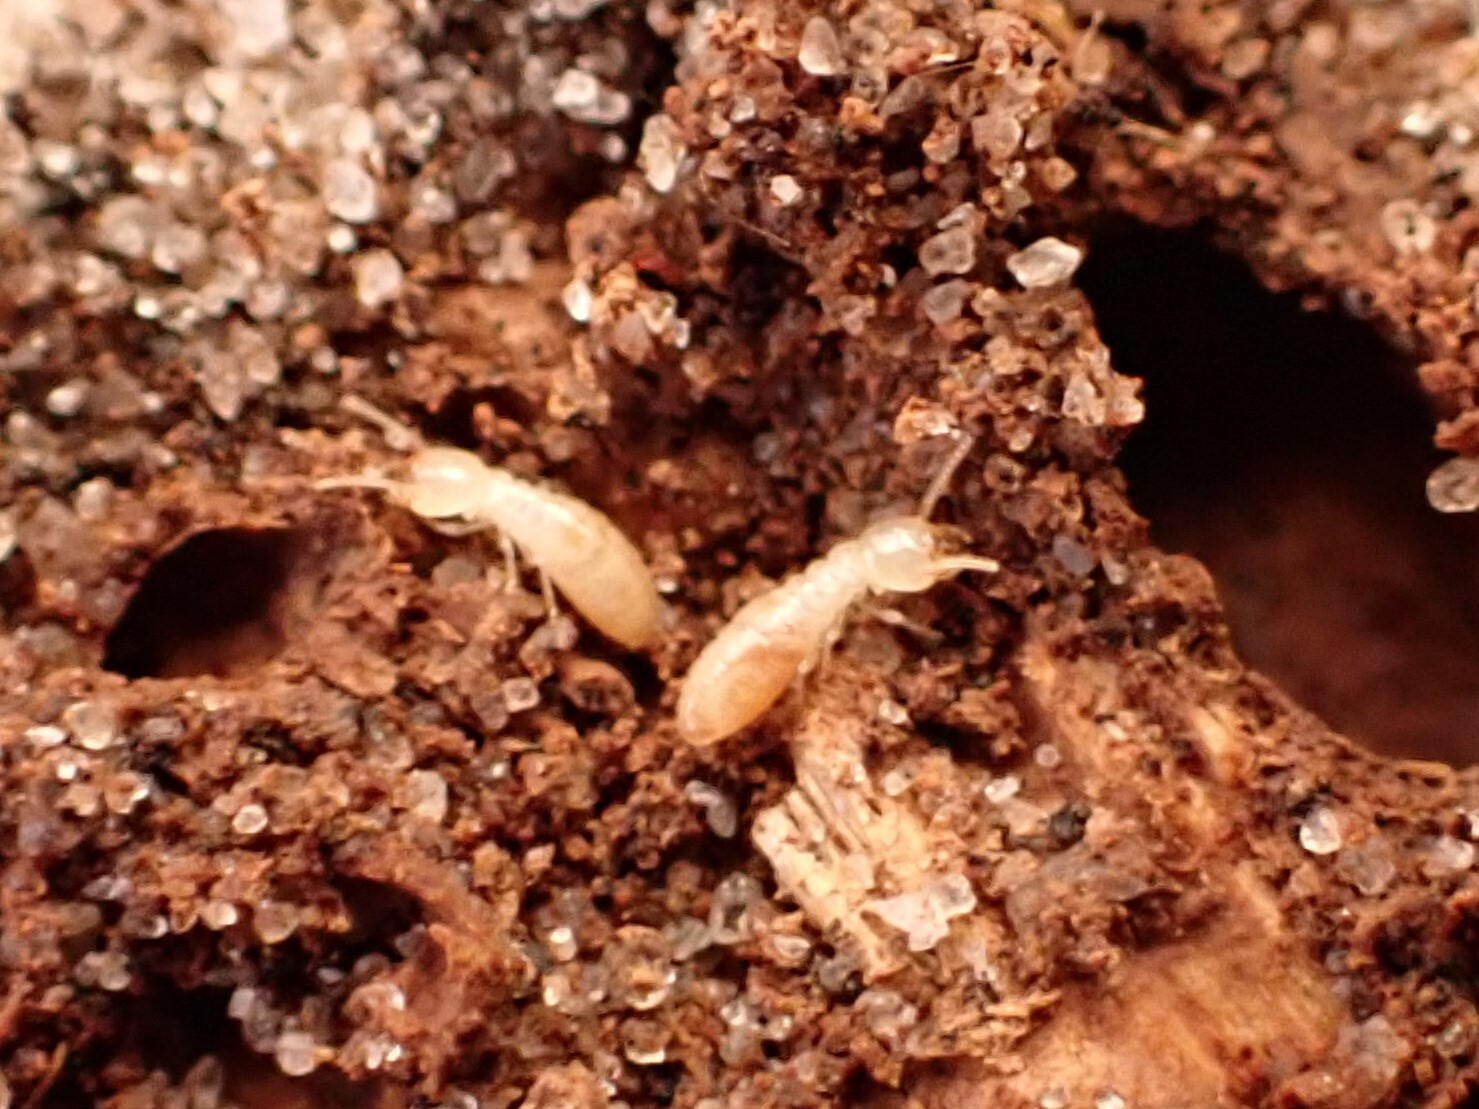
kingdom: Animalia
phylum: Arthropoda
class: Insecta
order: Blattodea
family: Rhinotermitidae
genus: Reticulitermes
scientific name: Reticulitermes flavipes
